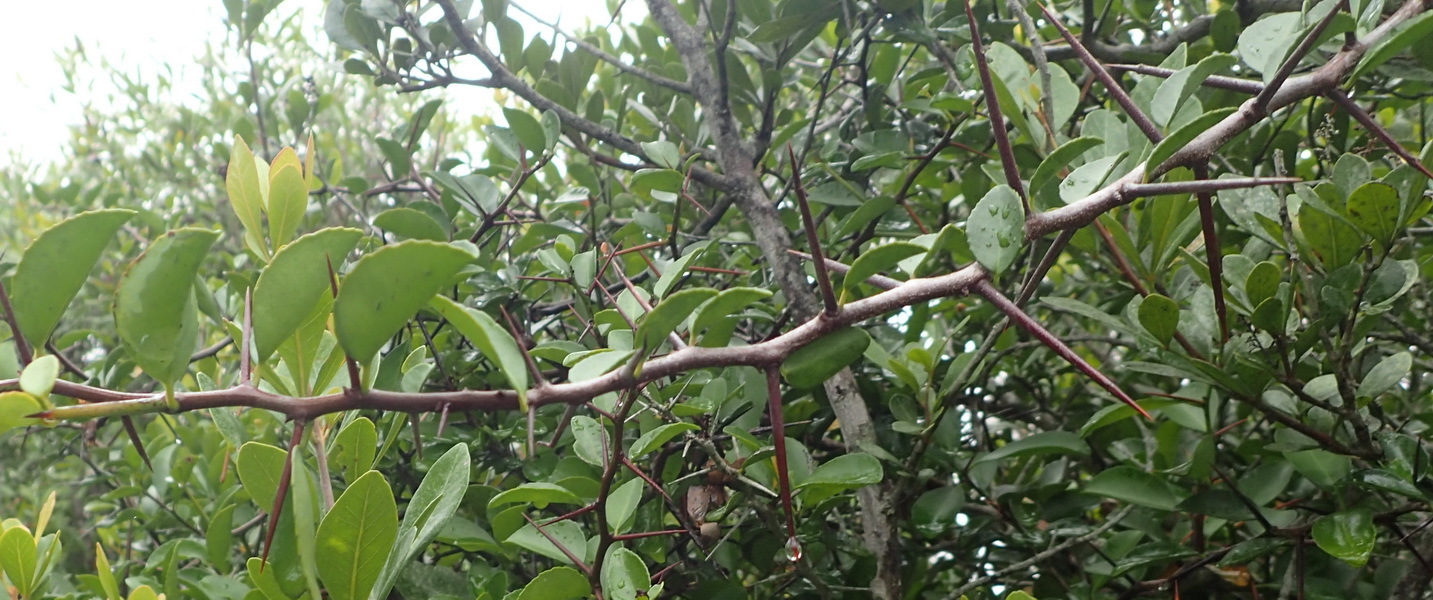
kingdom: Plantae
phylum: Tracheophyta
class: Magnoliopsida
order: Celastrales
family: Celastraceae
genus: Gymnosporia
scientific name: Gymnosporia nemorosa
